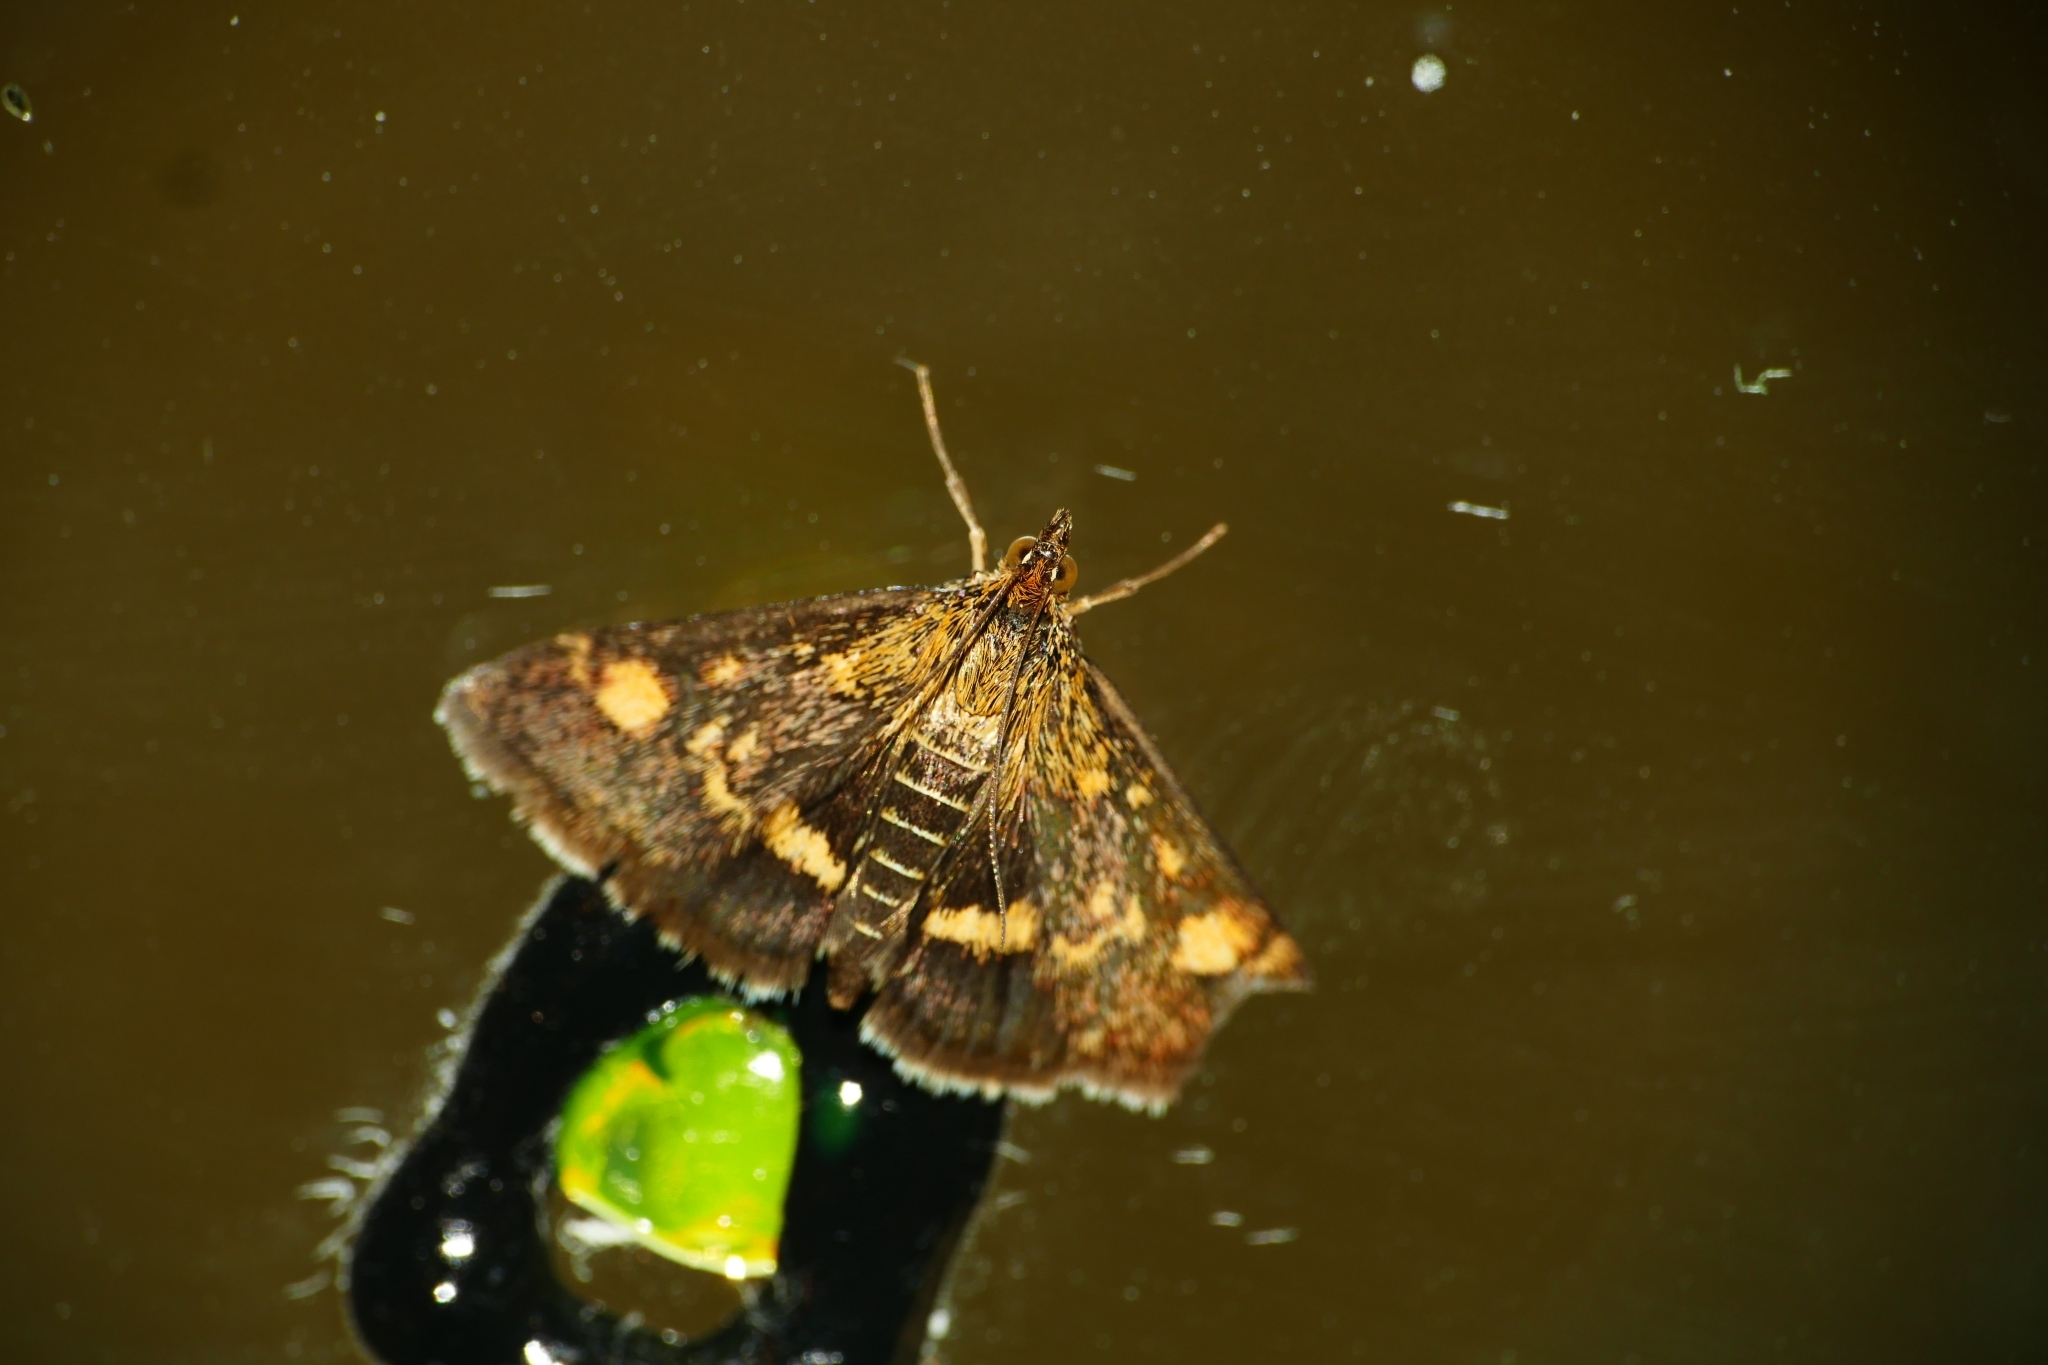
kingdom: Animalia
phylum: Arthropoda
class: Insecta
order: Lepidoptera
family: Crambidae
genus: Pyrausta
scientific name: Pyrausta aurata
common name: Small purple & gold
